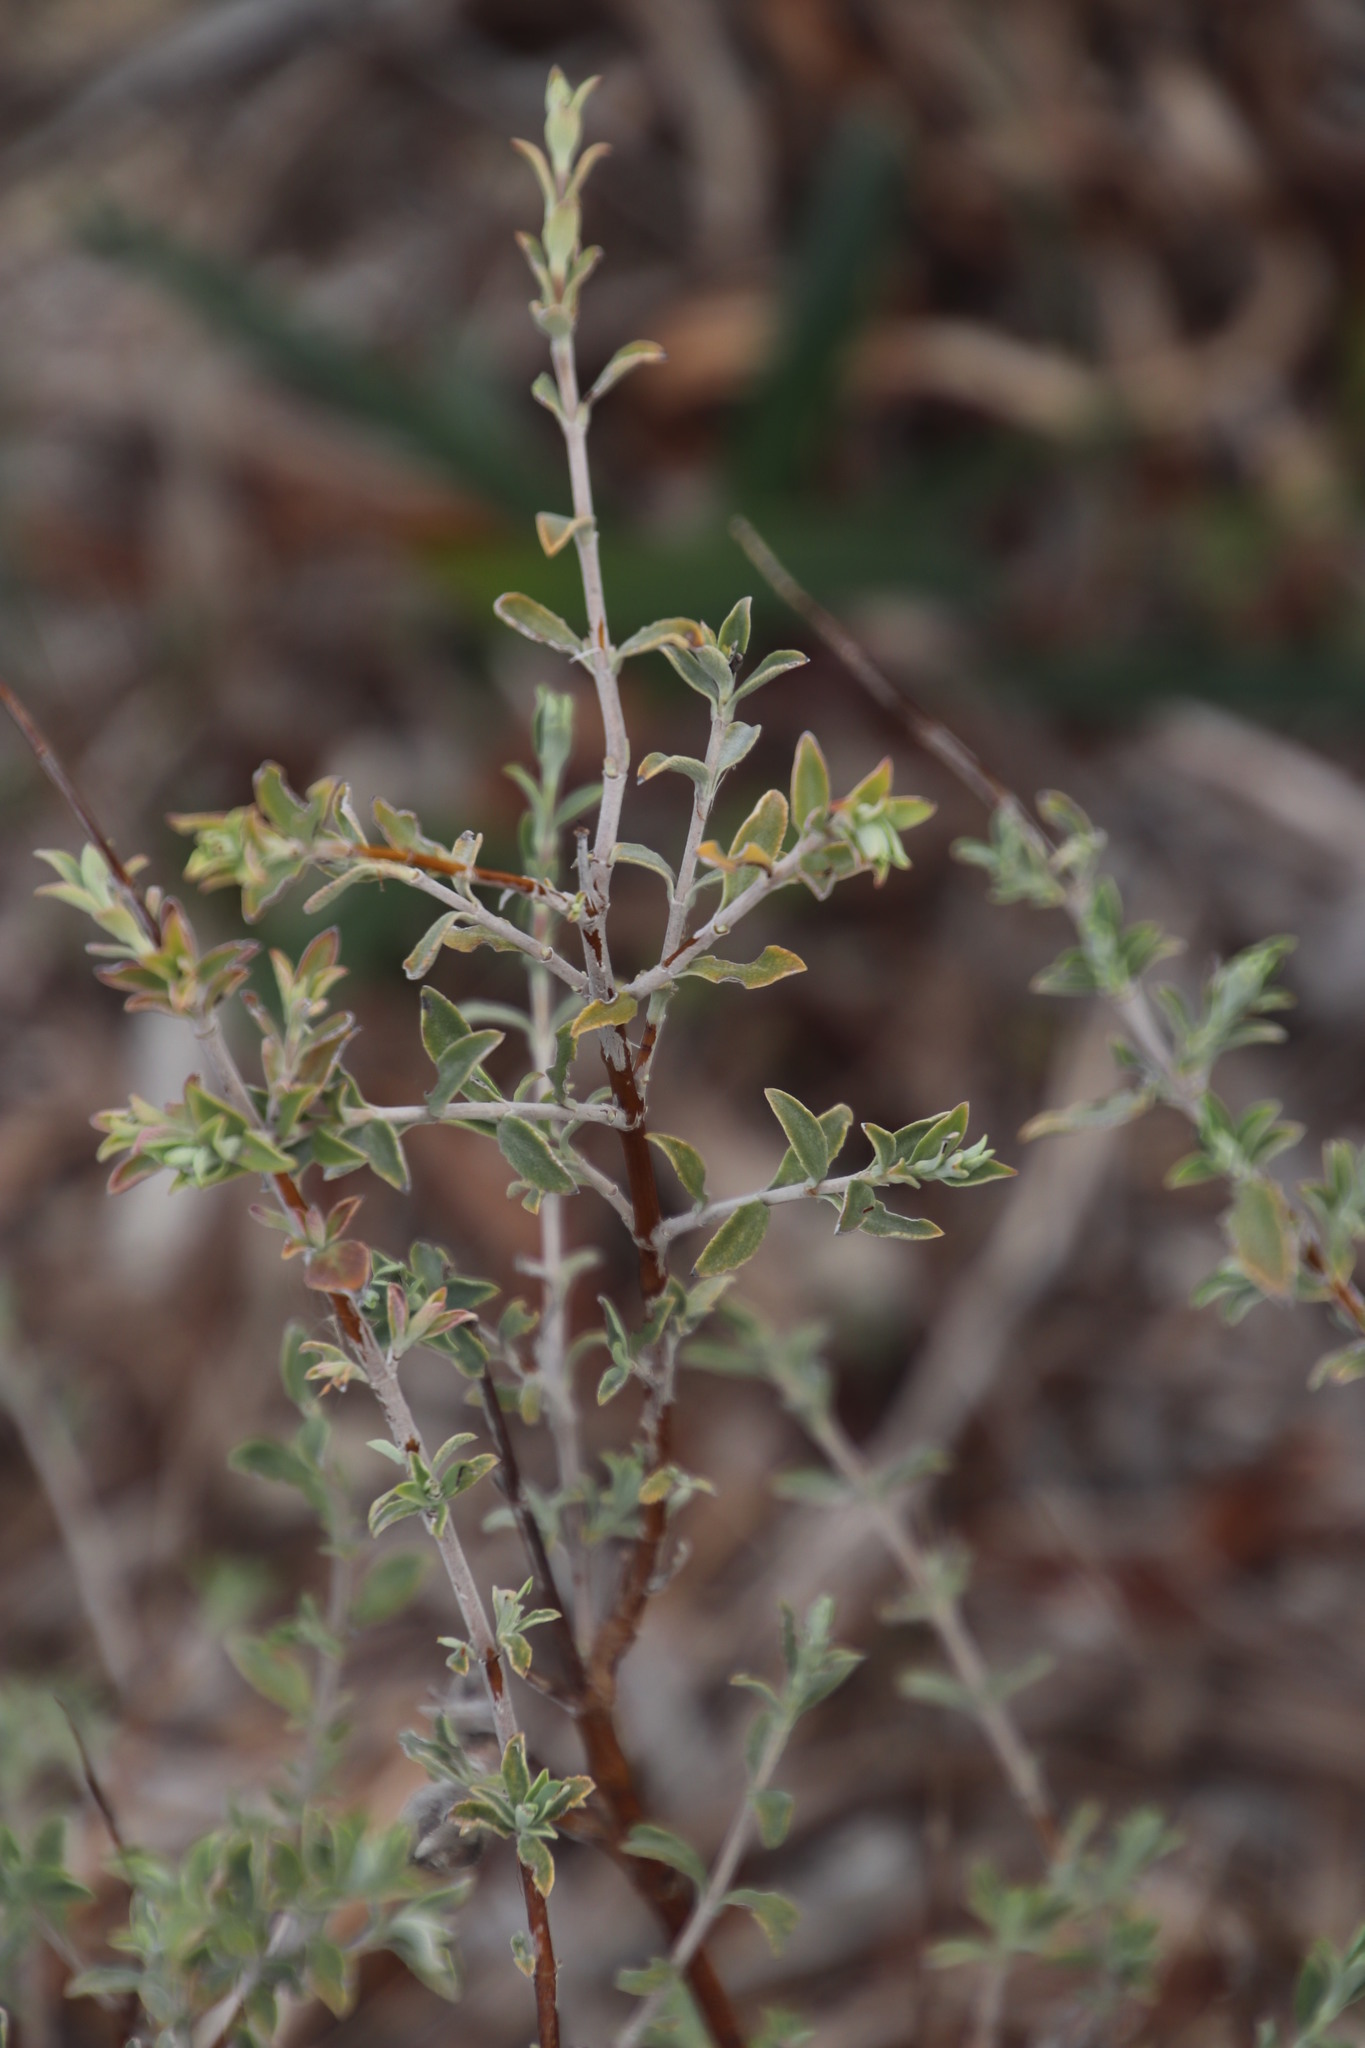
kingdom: Plantae
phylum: Tracheophyta
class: Magnoliopsida
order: Lamiales
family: Lamiaceae
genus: Salvia
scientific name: Salvia africana
